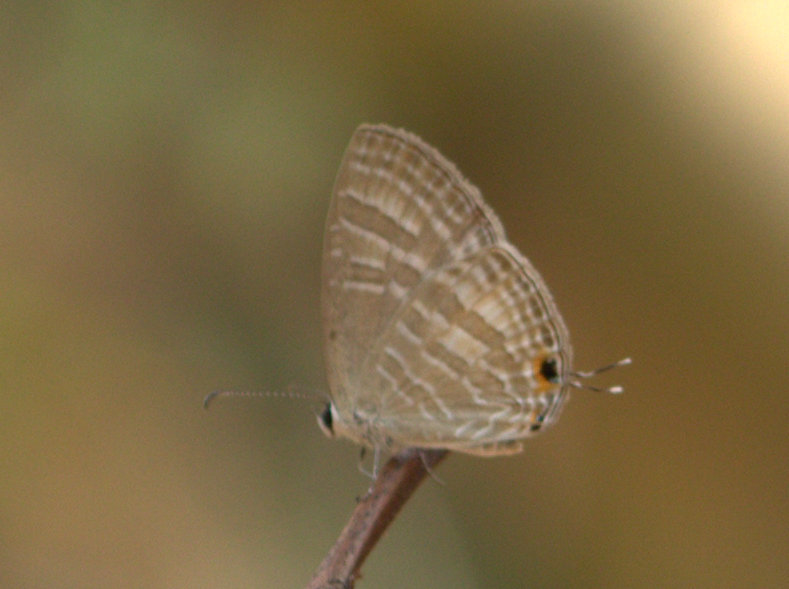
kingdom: Animalia
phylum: Arthropoda
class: Insecta
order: Lepidoptera
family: Lycaenidae
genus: Jamides
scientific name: Jamides celeno
